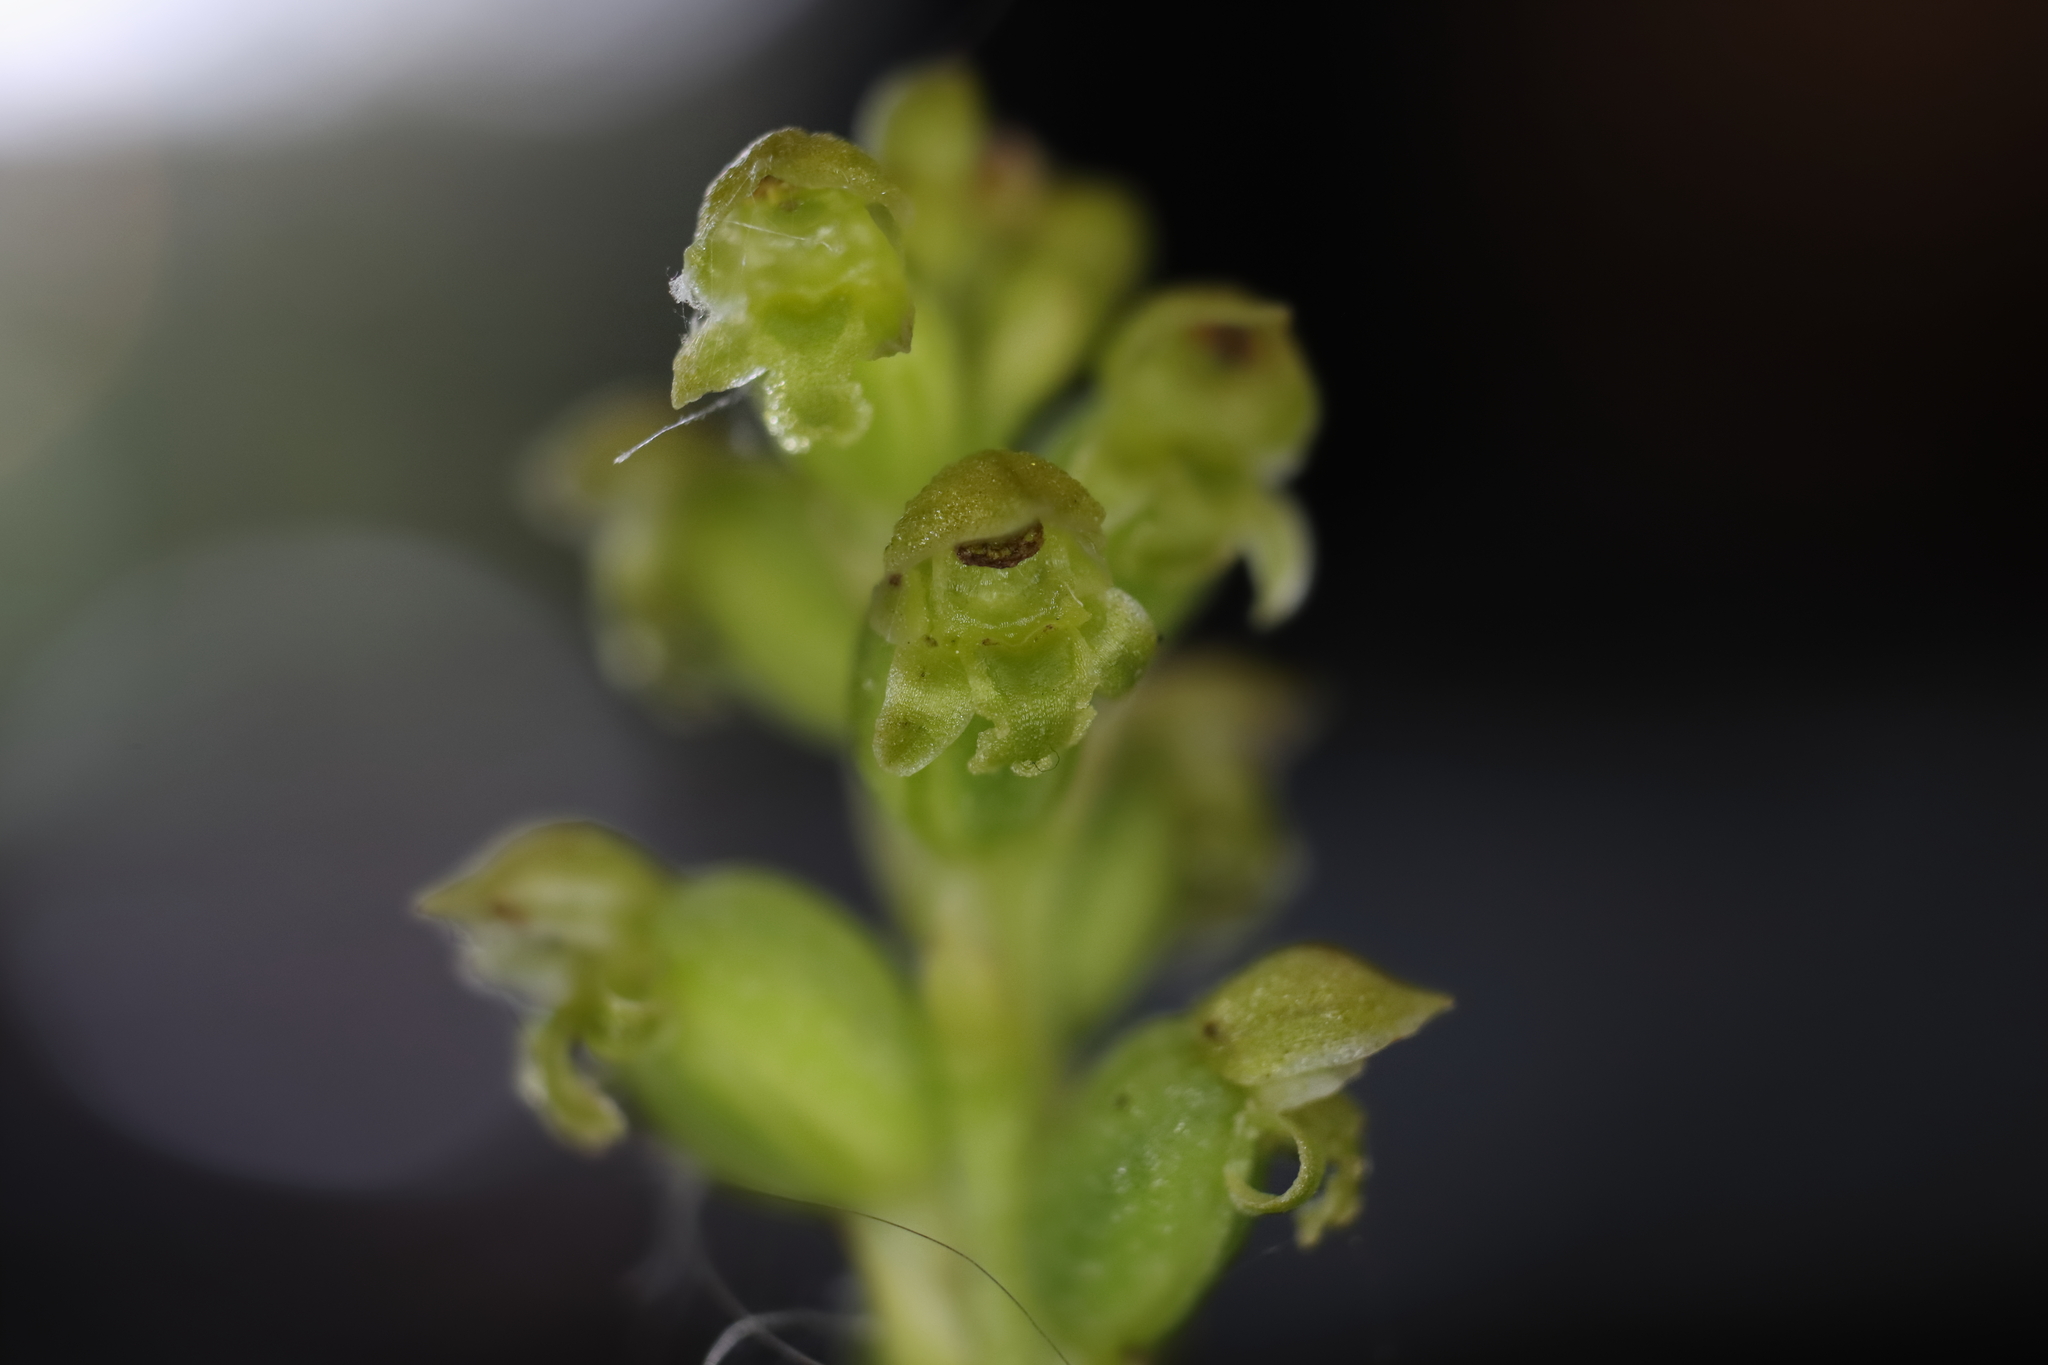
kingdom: Plantae
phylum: Tracheophyta
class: Liliopsida
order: Asparagales
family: Orchidaceae
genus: Microtis
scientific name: Microtis unifolia
